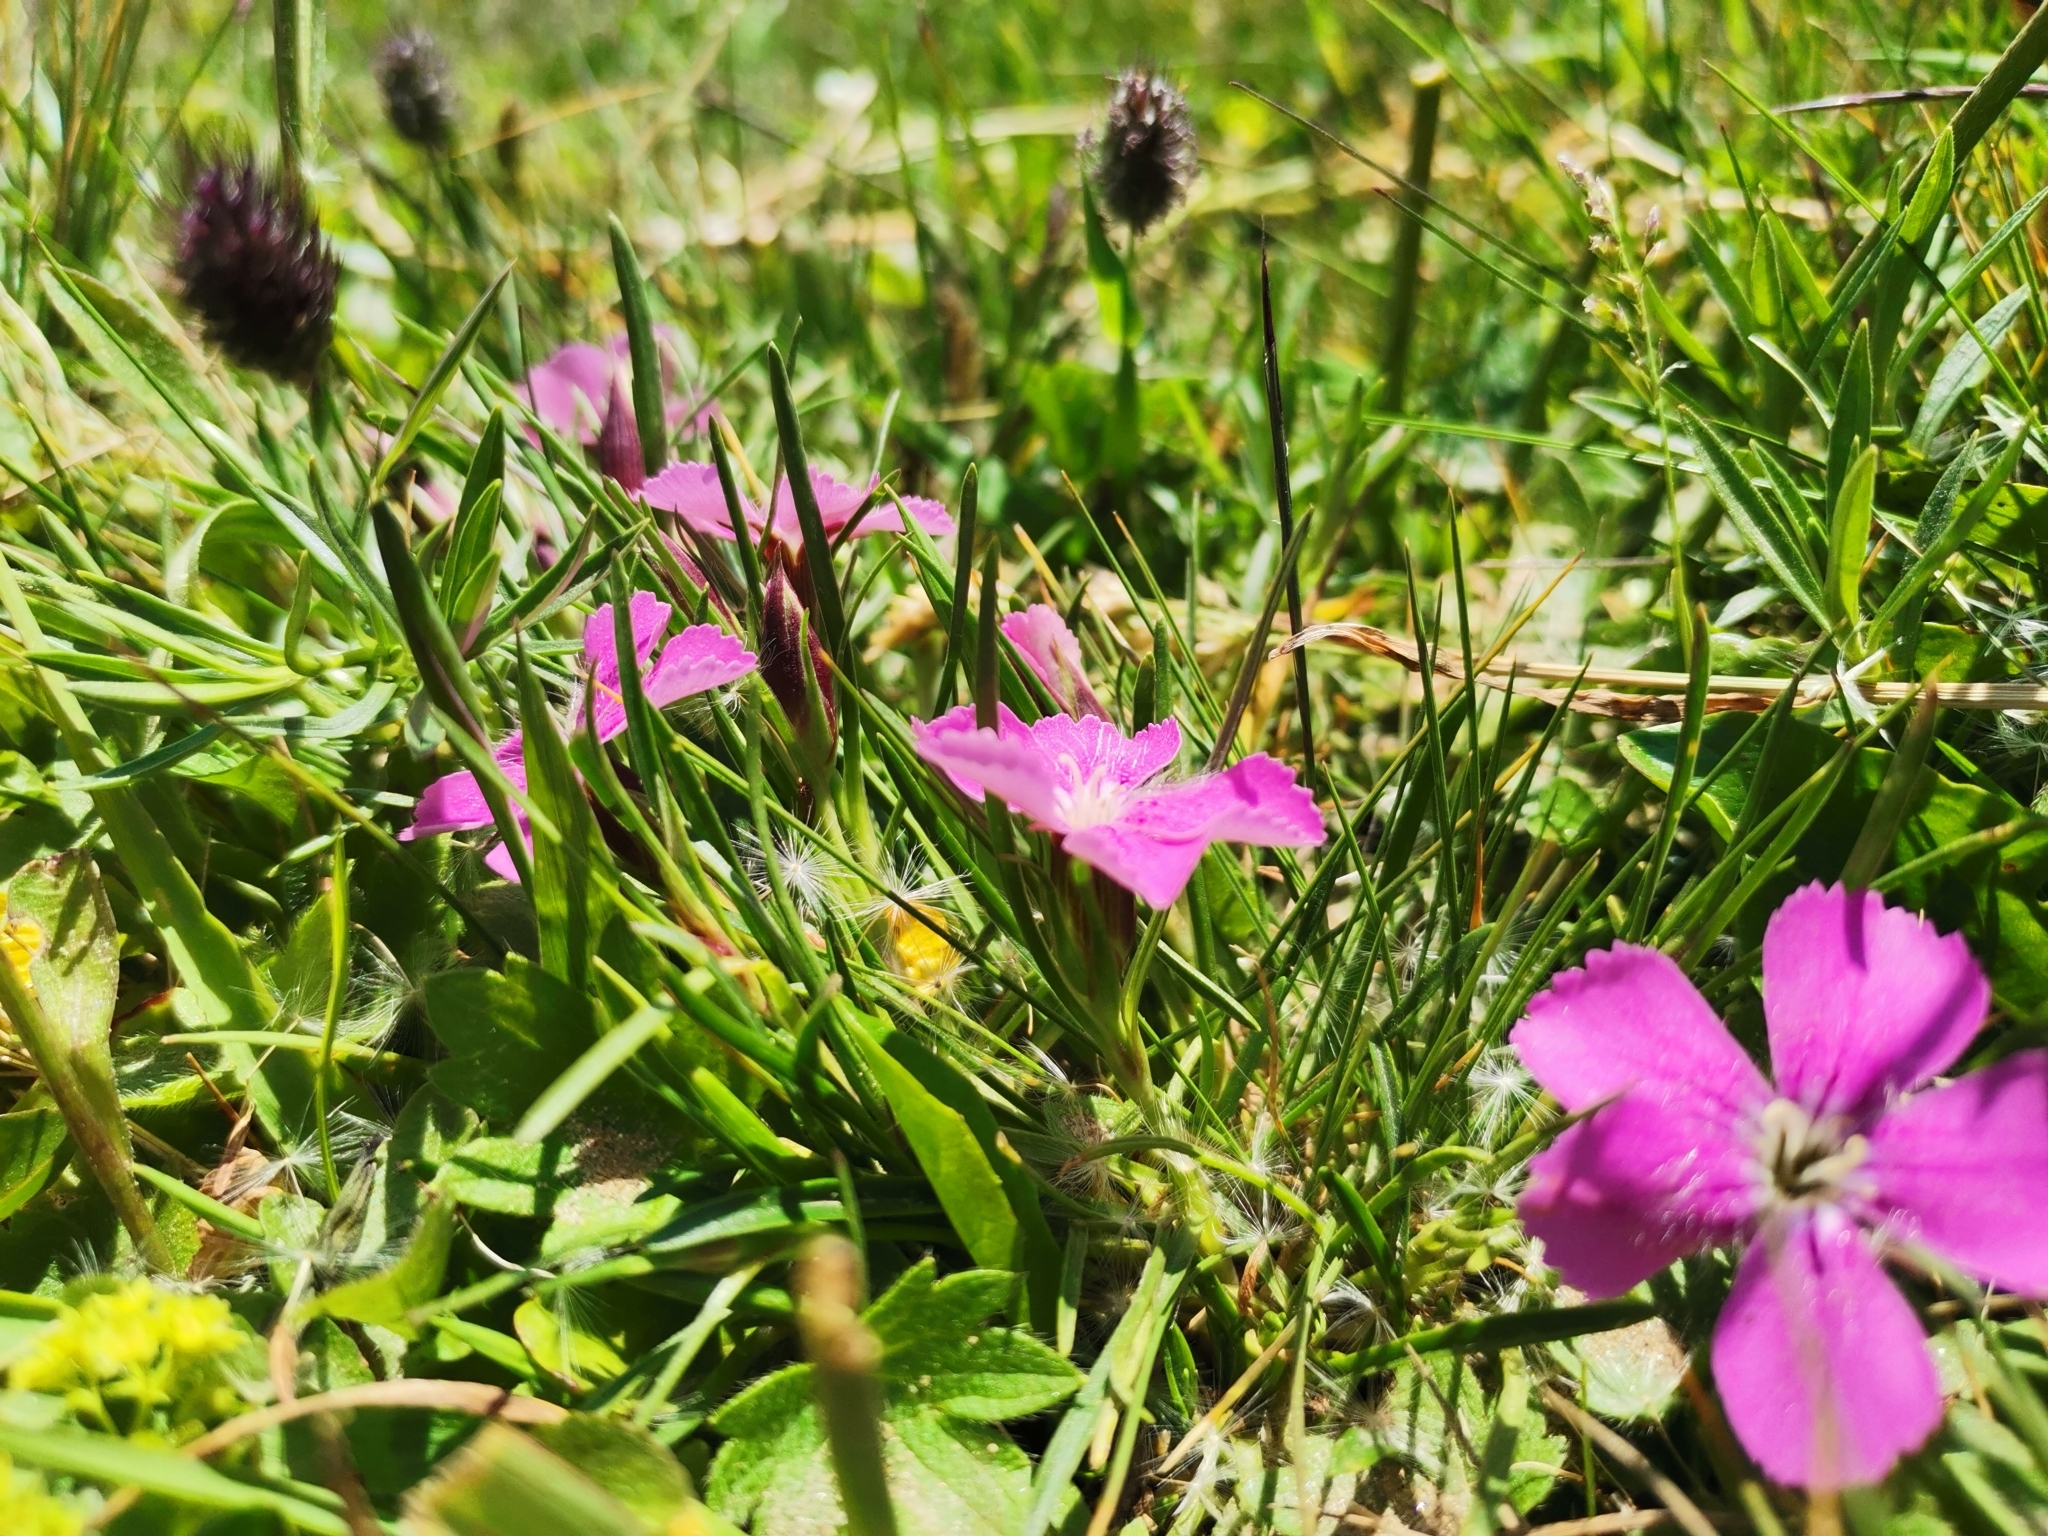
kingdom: Plantae
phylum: Tracheophyta
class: Magnoliopsida
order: Caryophyllales
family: Caryophyllaceae
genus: Dianthus
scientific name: Dianthus glacialis
